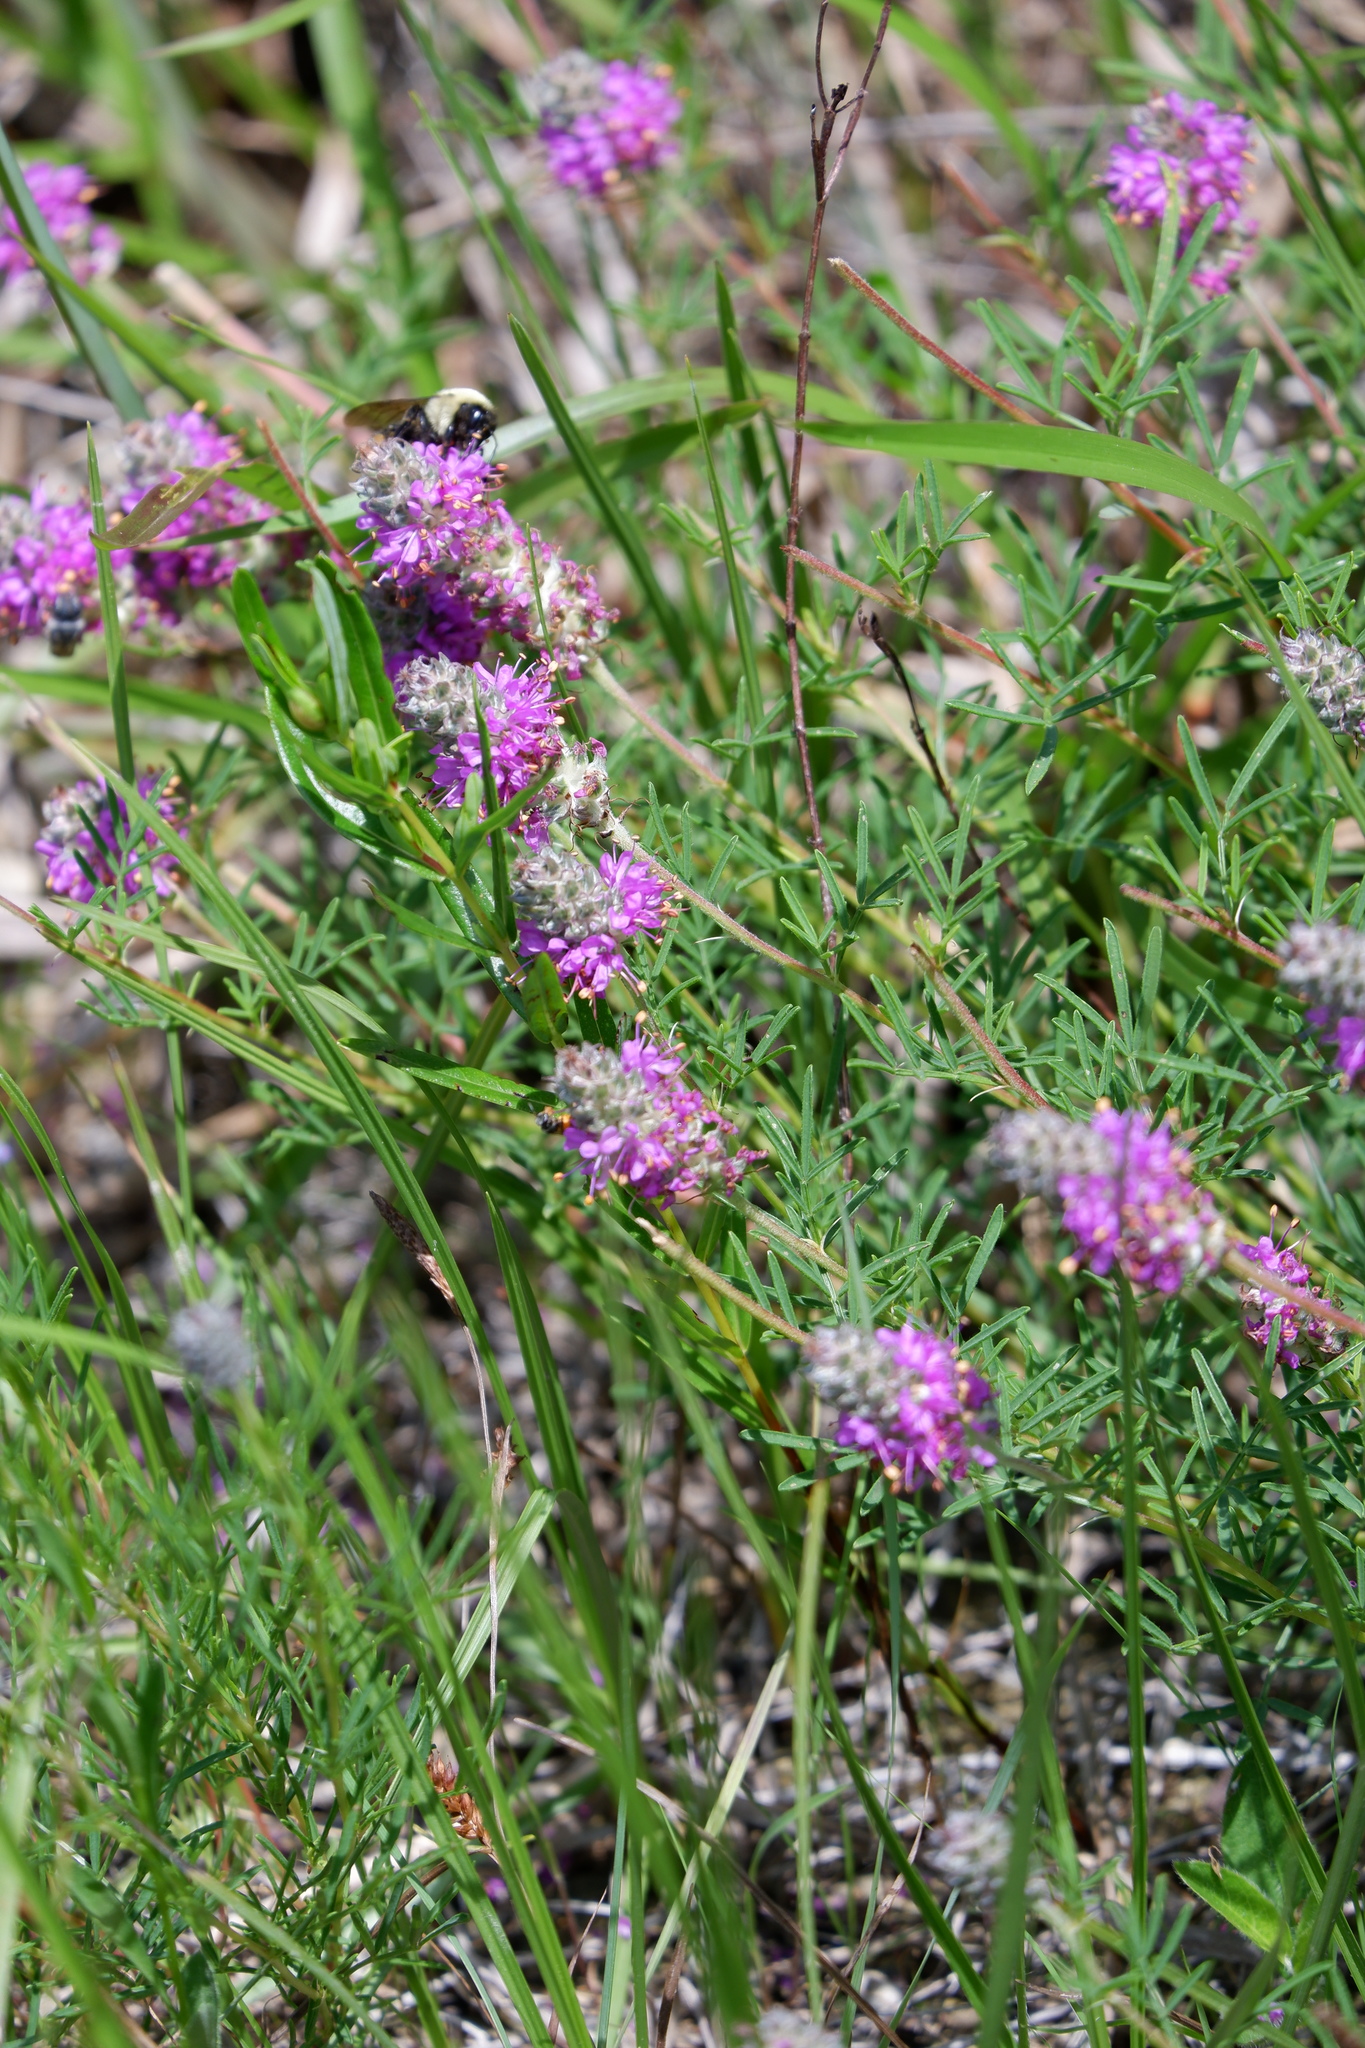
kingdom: Plantae
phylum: Tracheophyta
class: Magnoliopsida
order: Fabales
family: Fabaceae
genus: Dalea
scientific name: Dalea gattingeri
